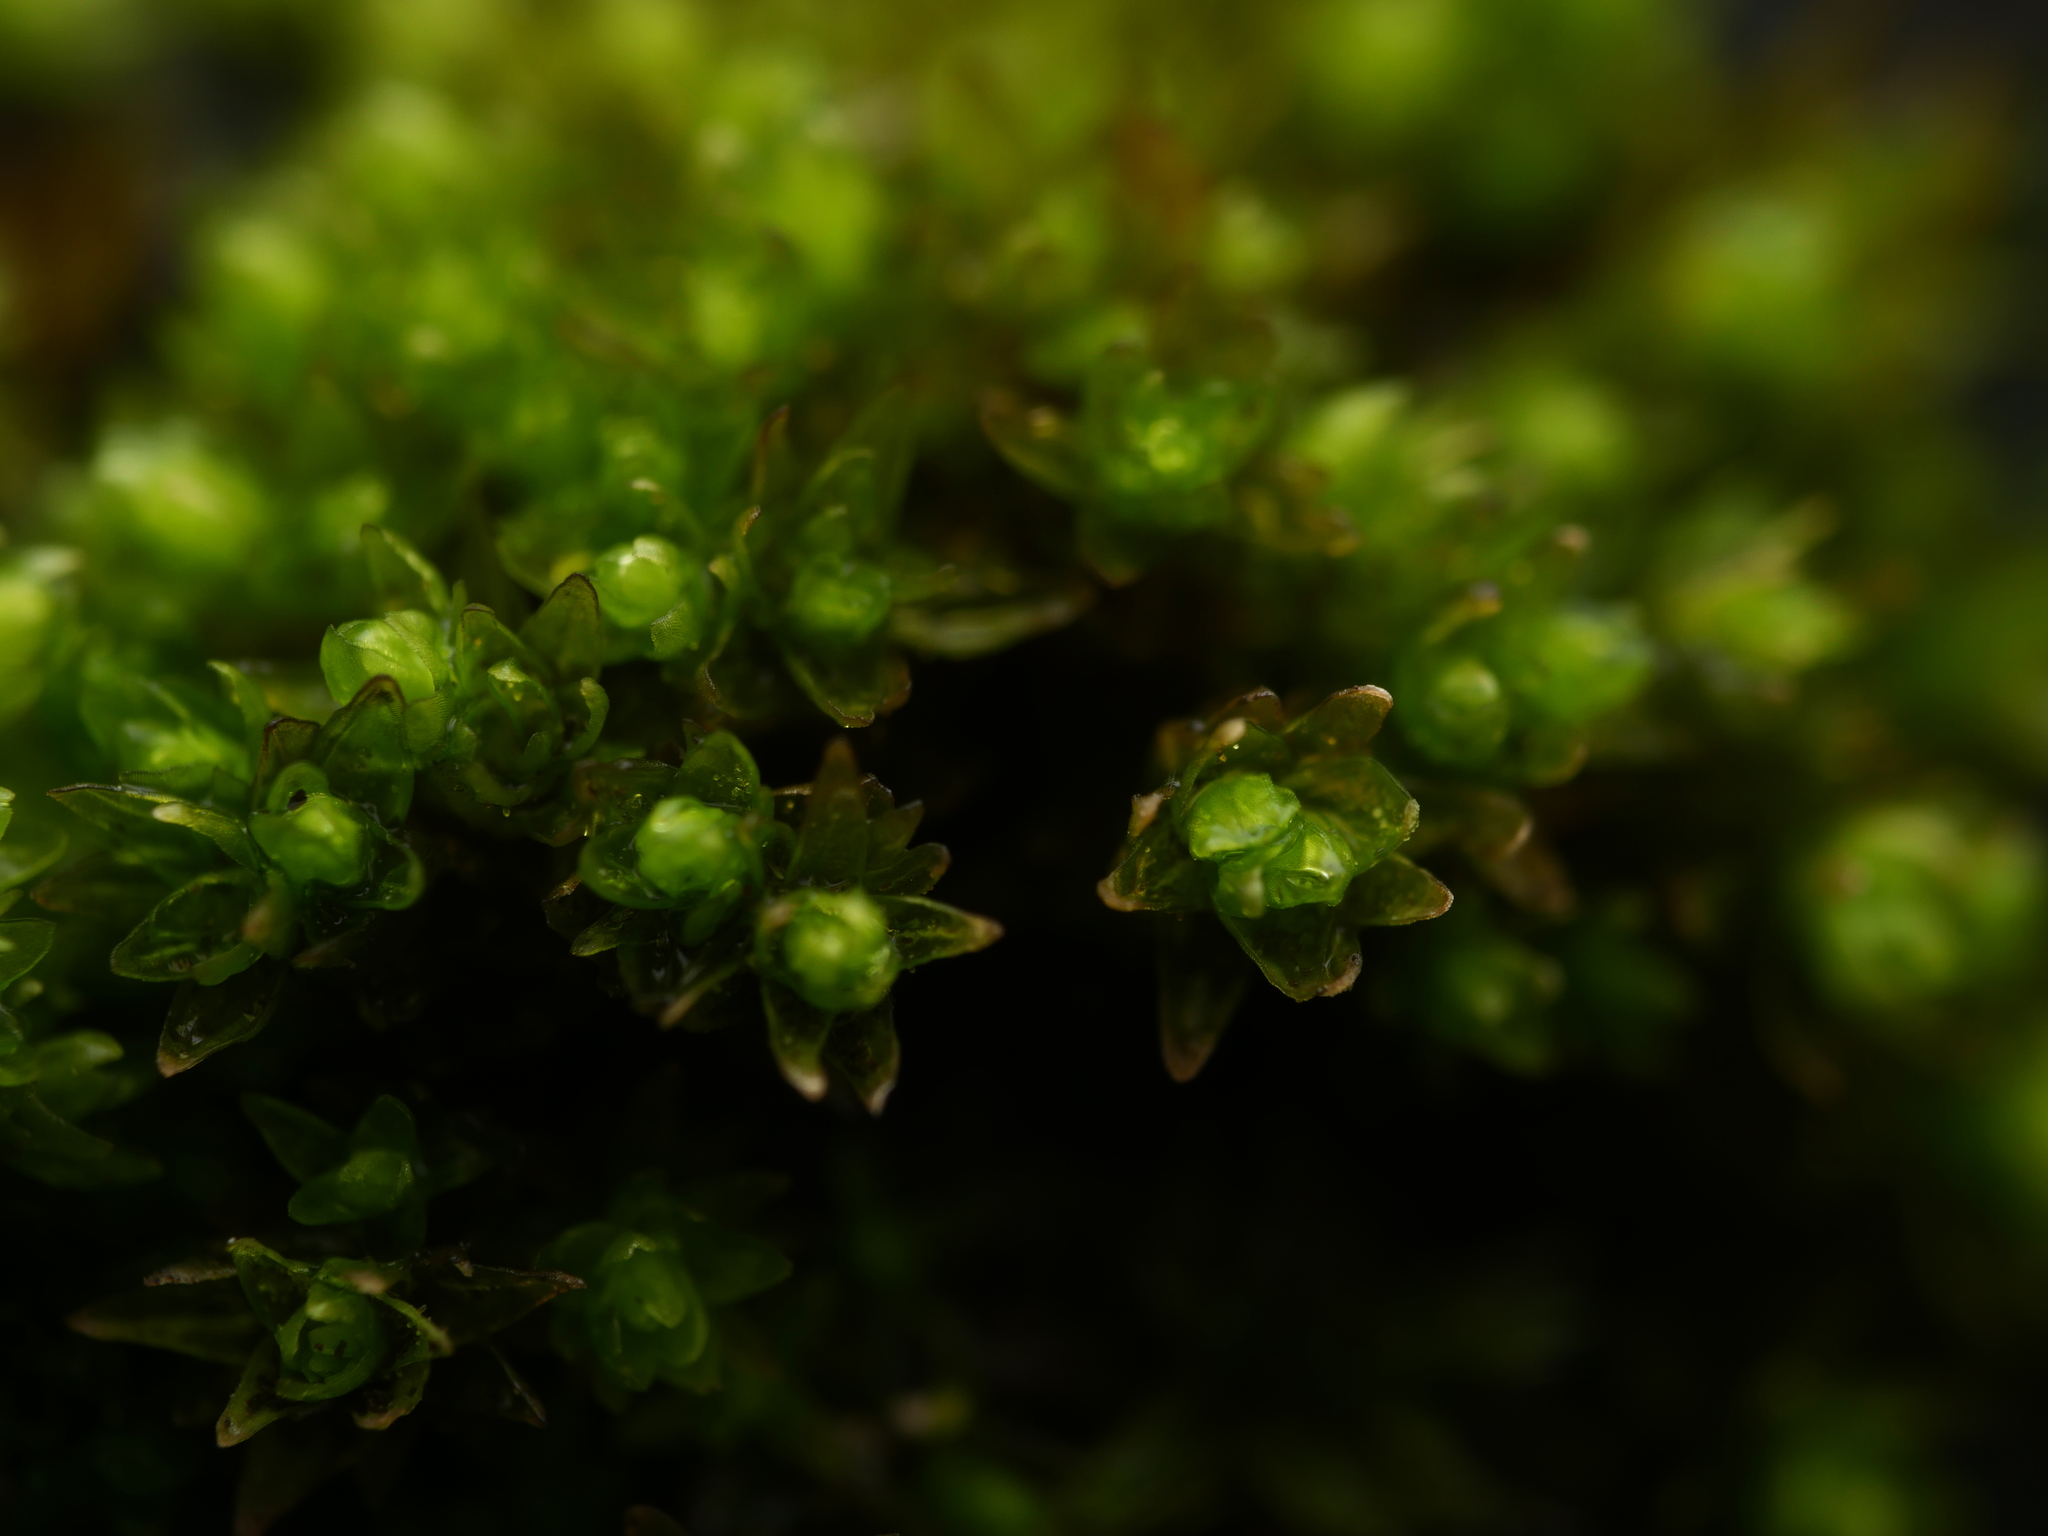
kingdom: Plantae
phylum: Bryophyta
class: Bryopsida
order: Orthotrichales
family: Orthotrichaceae
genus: Nyholmiella
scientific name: Nyholmiella obtusifolia
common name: Blunt-leaved bristle-moss
